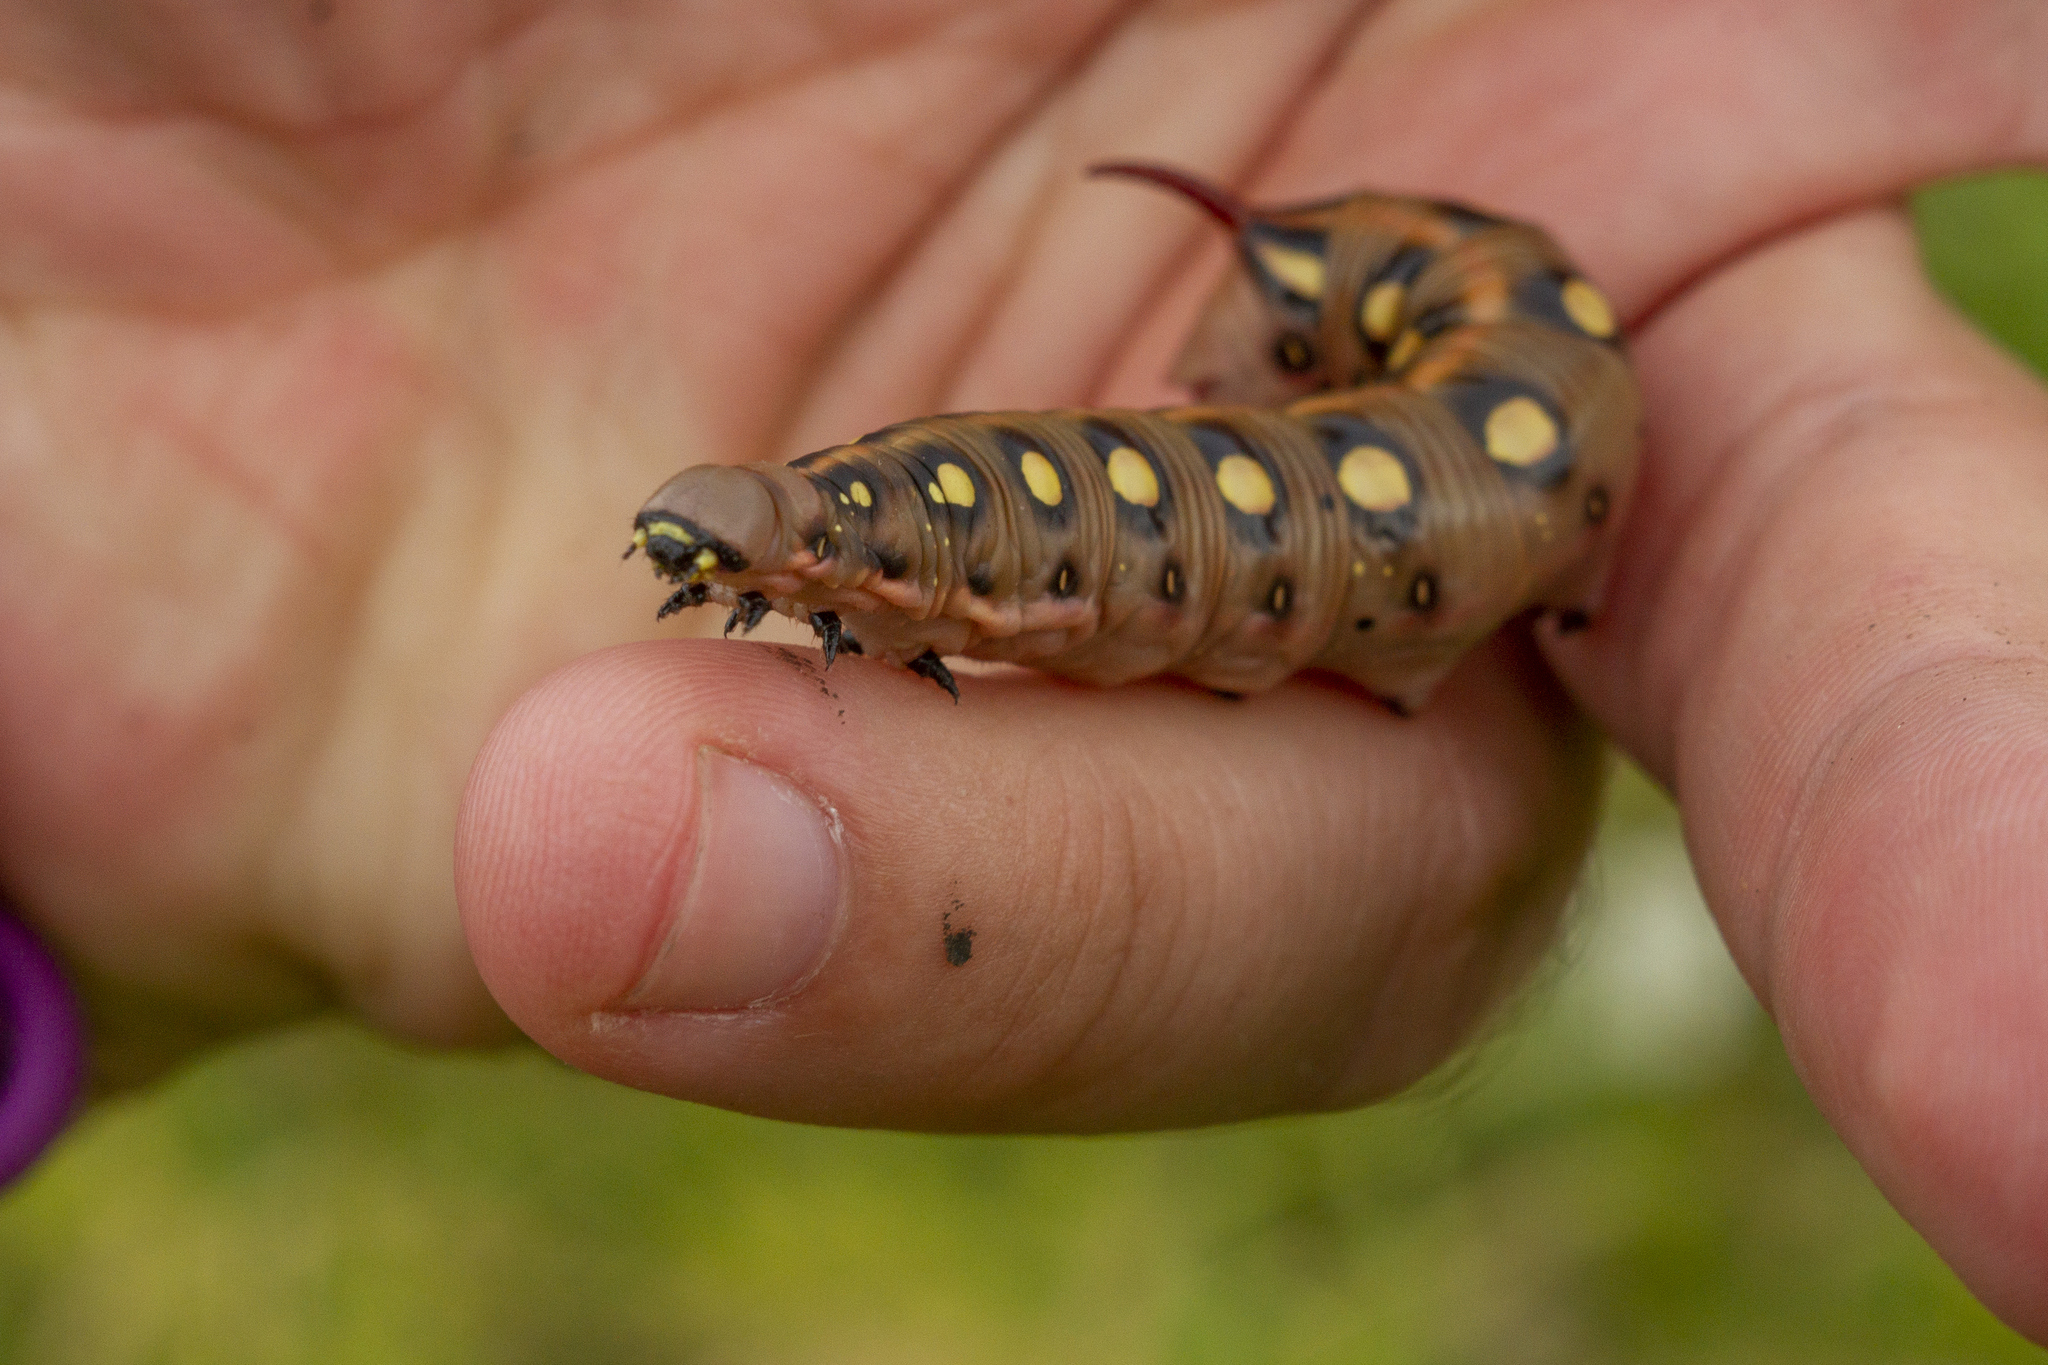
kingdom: Animalia
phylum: Arthropoda
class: Insecta
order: Lepidoptera
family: Sphingidae
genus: Hyles
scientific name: Hyles gallii
